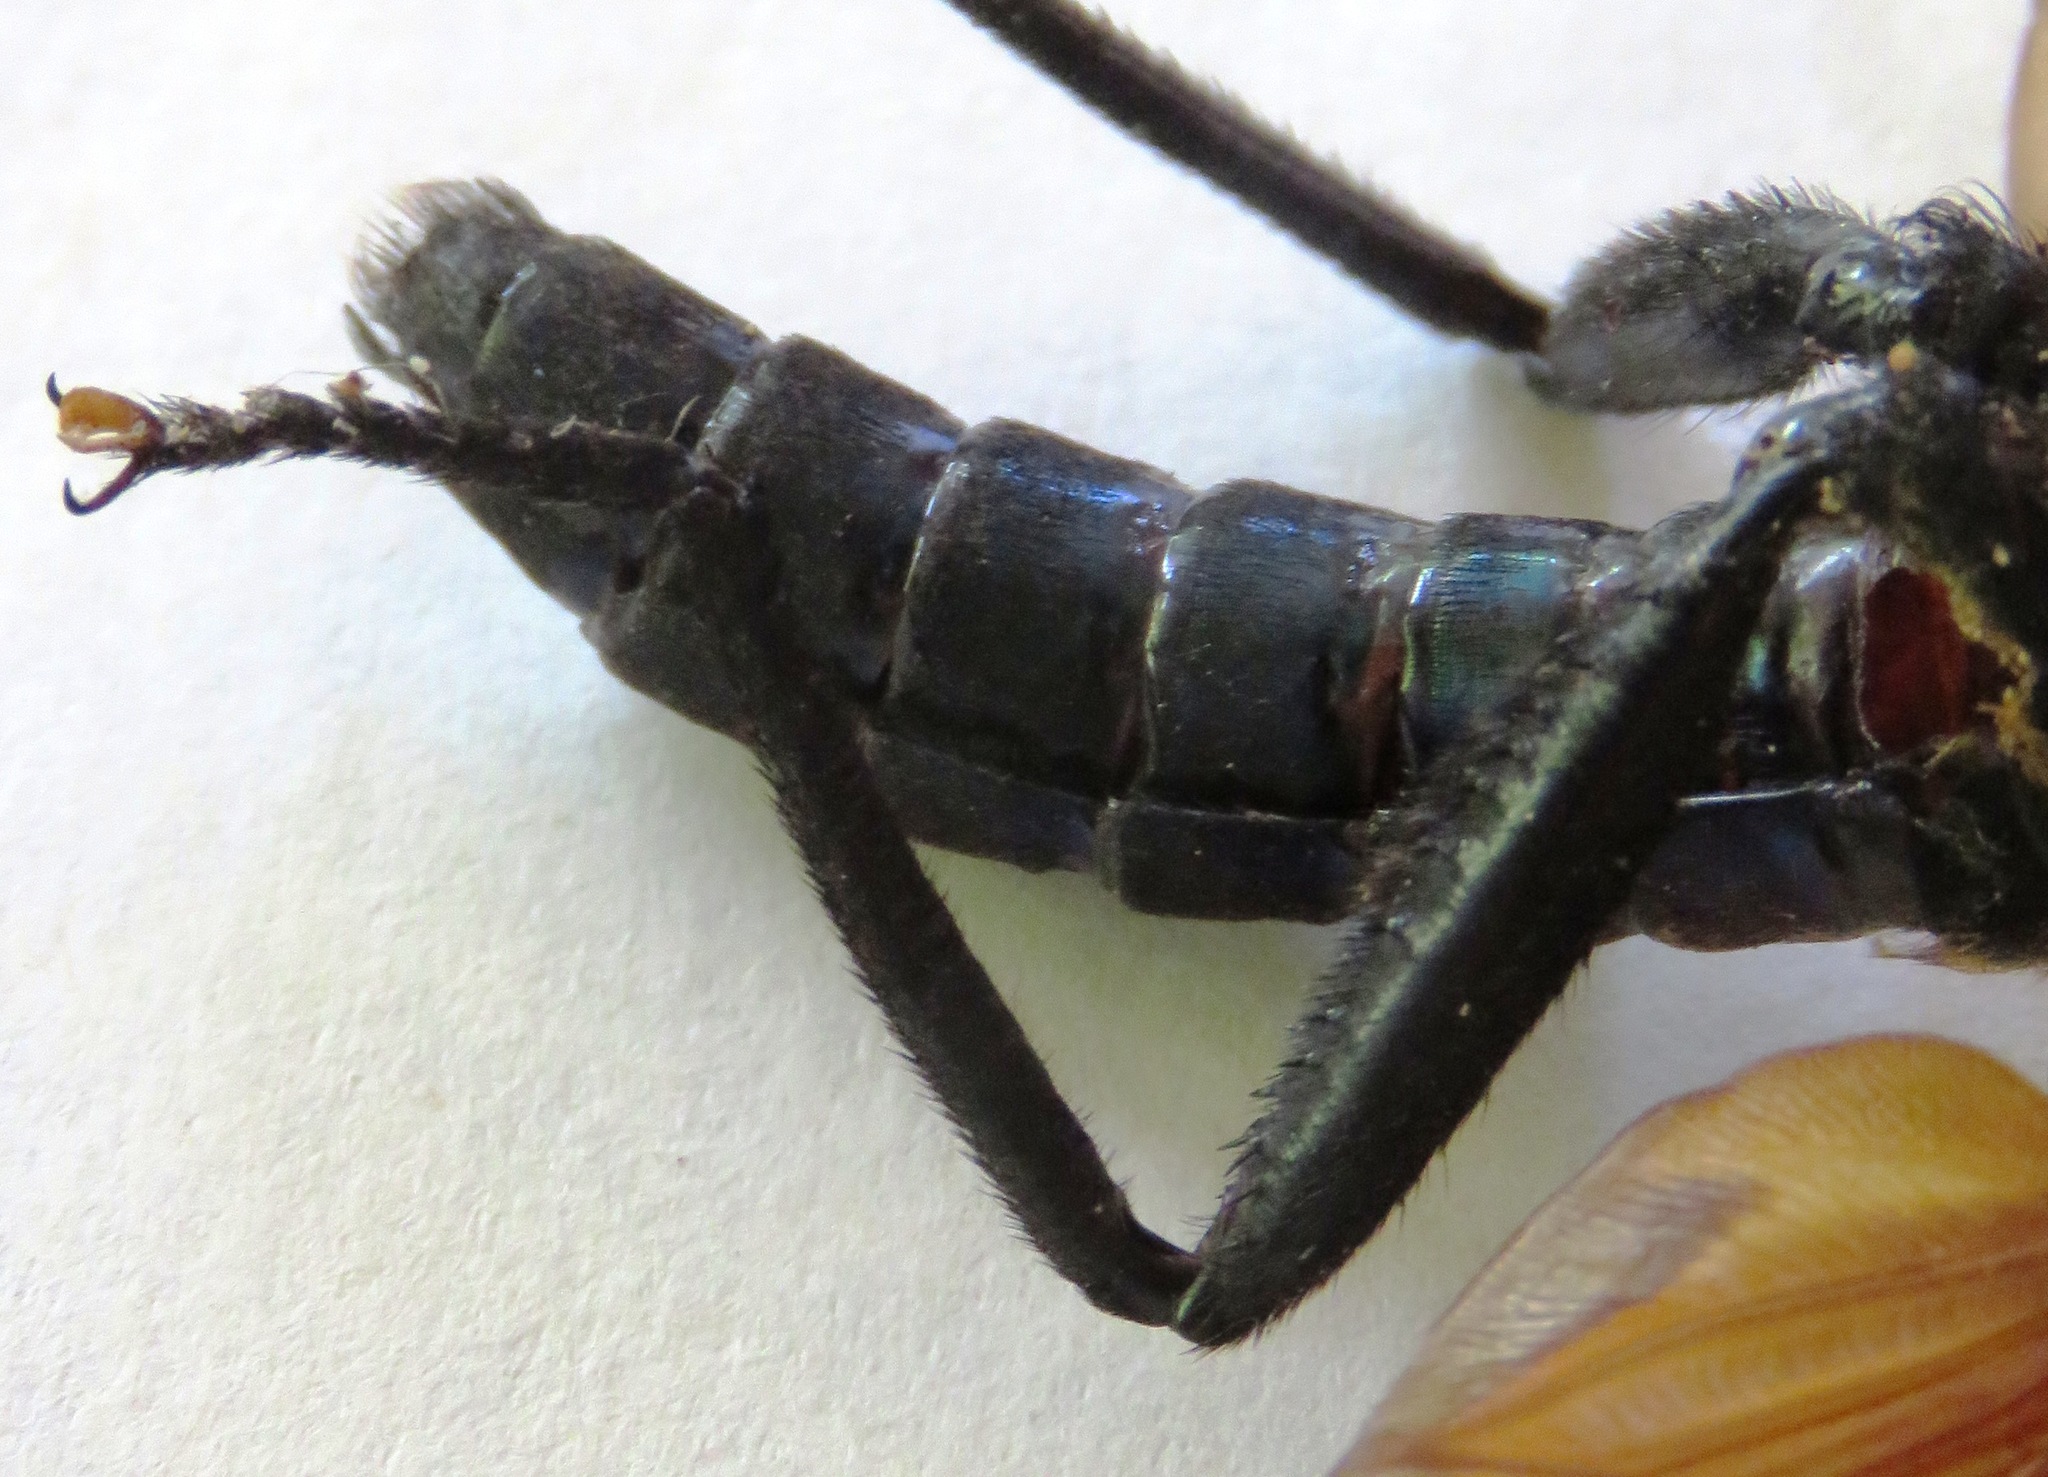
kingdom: Animalia
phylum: Arthropoda
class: Insecta
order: Diptera
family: Mydidae
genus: Mydas
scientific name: Mydas rubidapex
